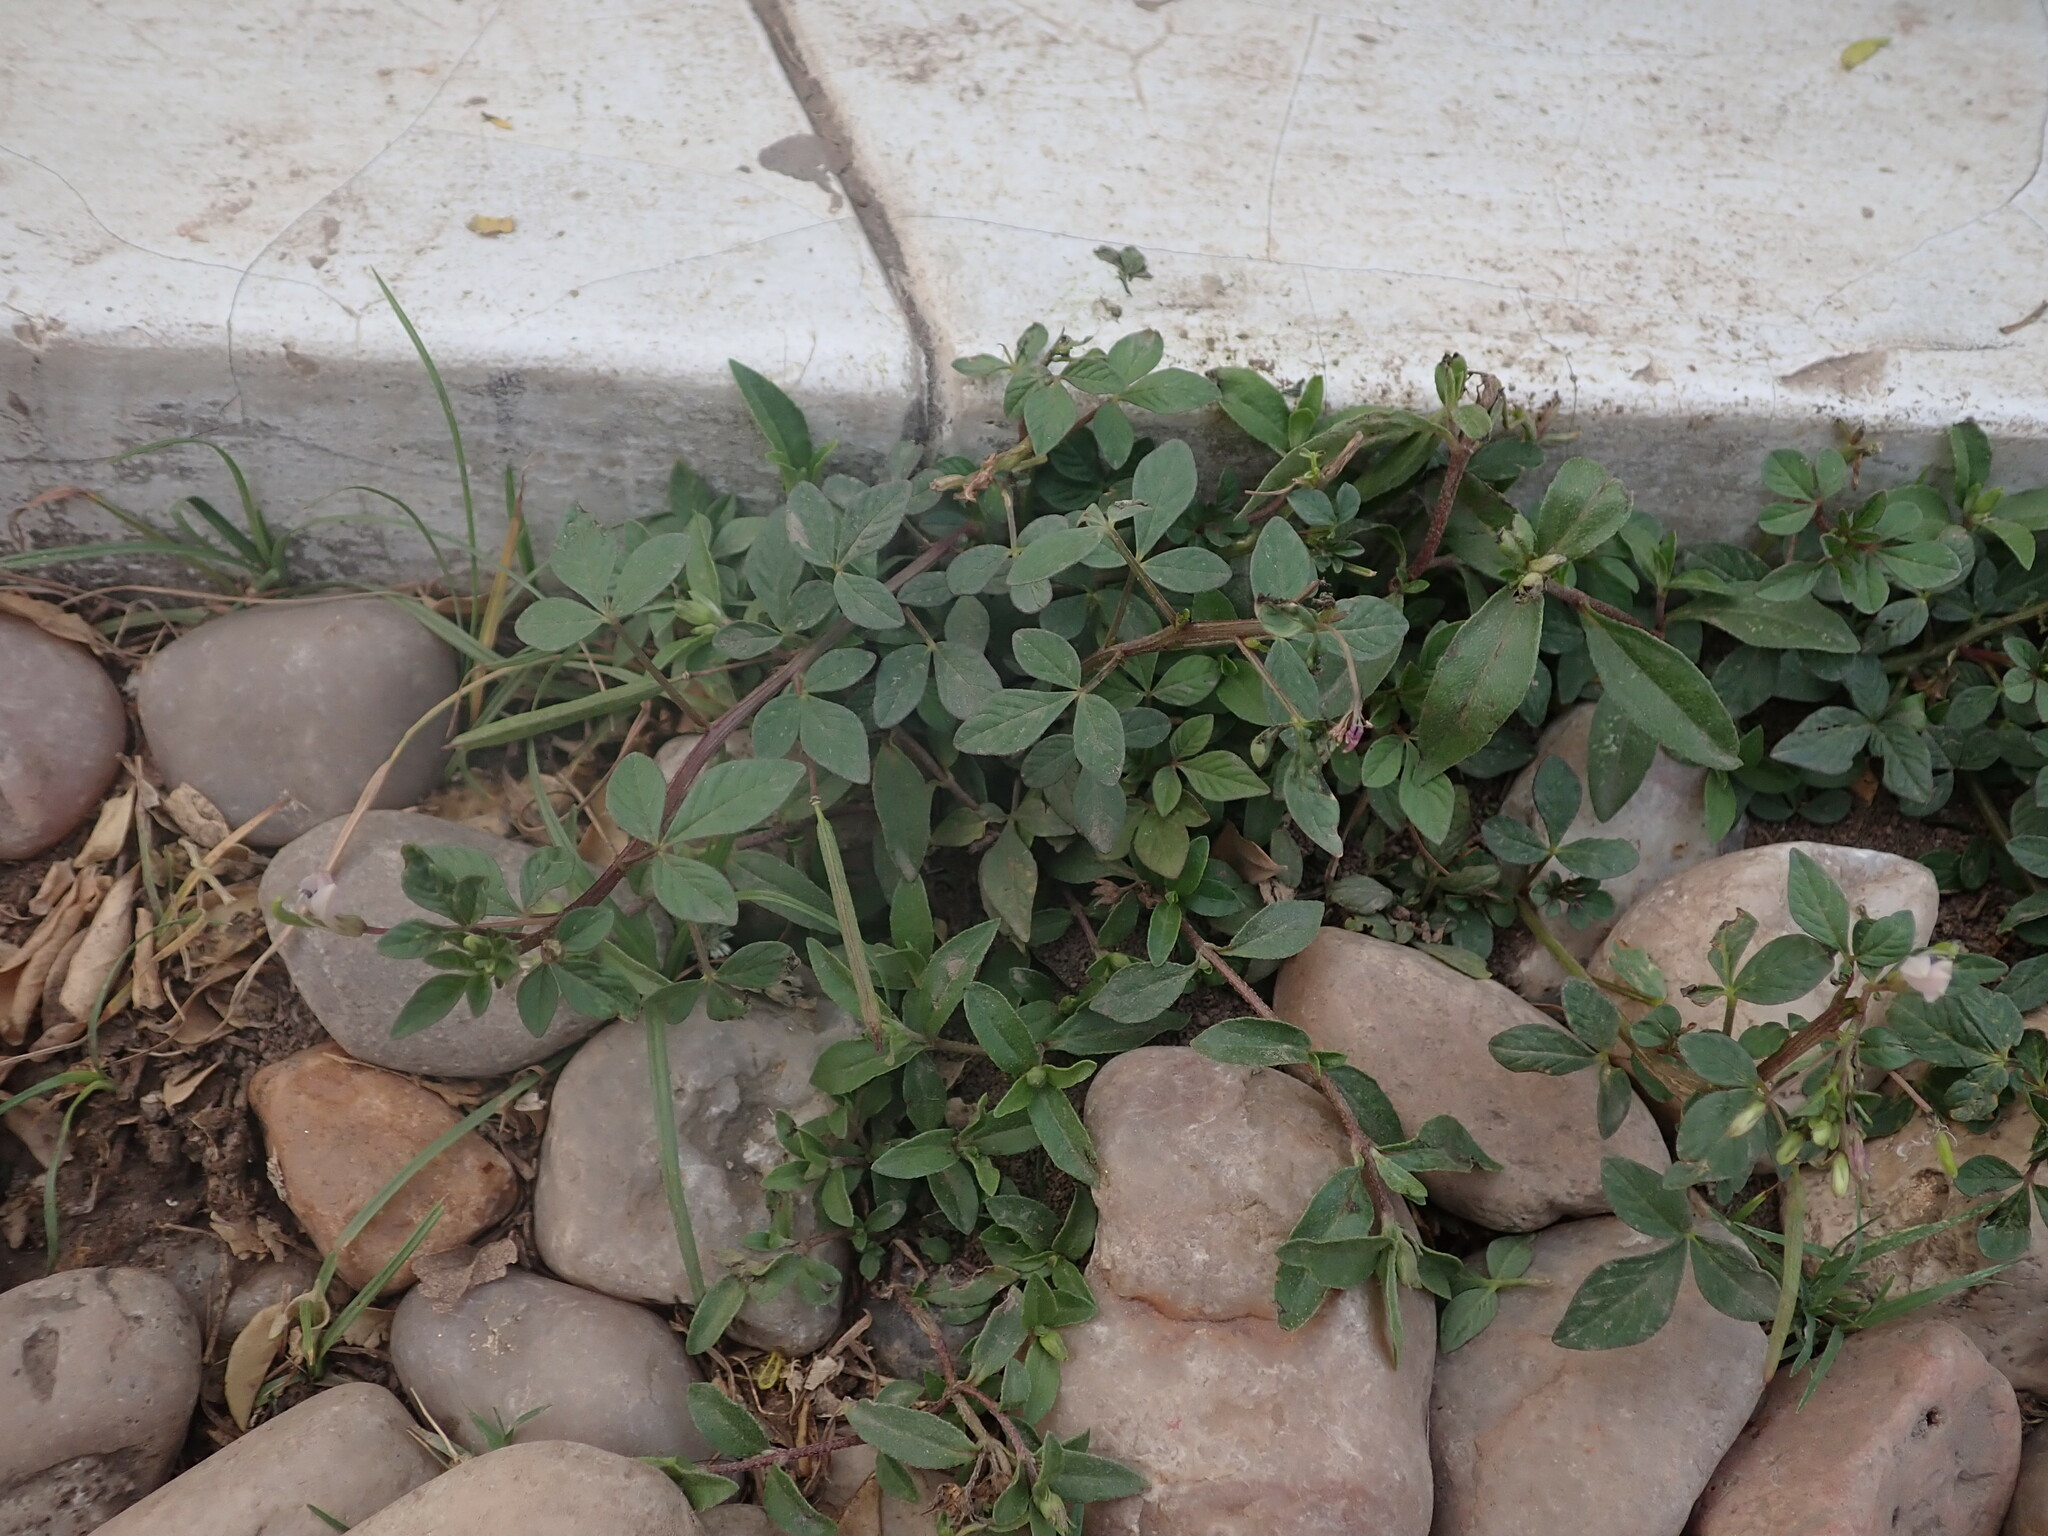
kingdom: Plantae
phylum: Tracheophyta
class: Magnoliopsida
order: Brassicales
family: Cleomaceae
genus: Sieruela
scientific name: Sieruela rutidosperma
